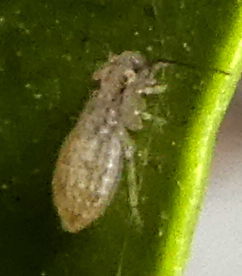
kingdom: Animalia
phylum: Arthropoda
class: Insecta
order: Psocodea
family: Trogiidae
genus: Cerobasis
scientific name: Cerobasis guestfalica
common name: Book lice
